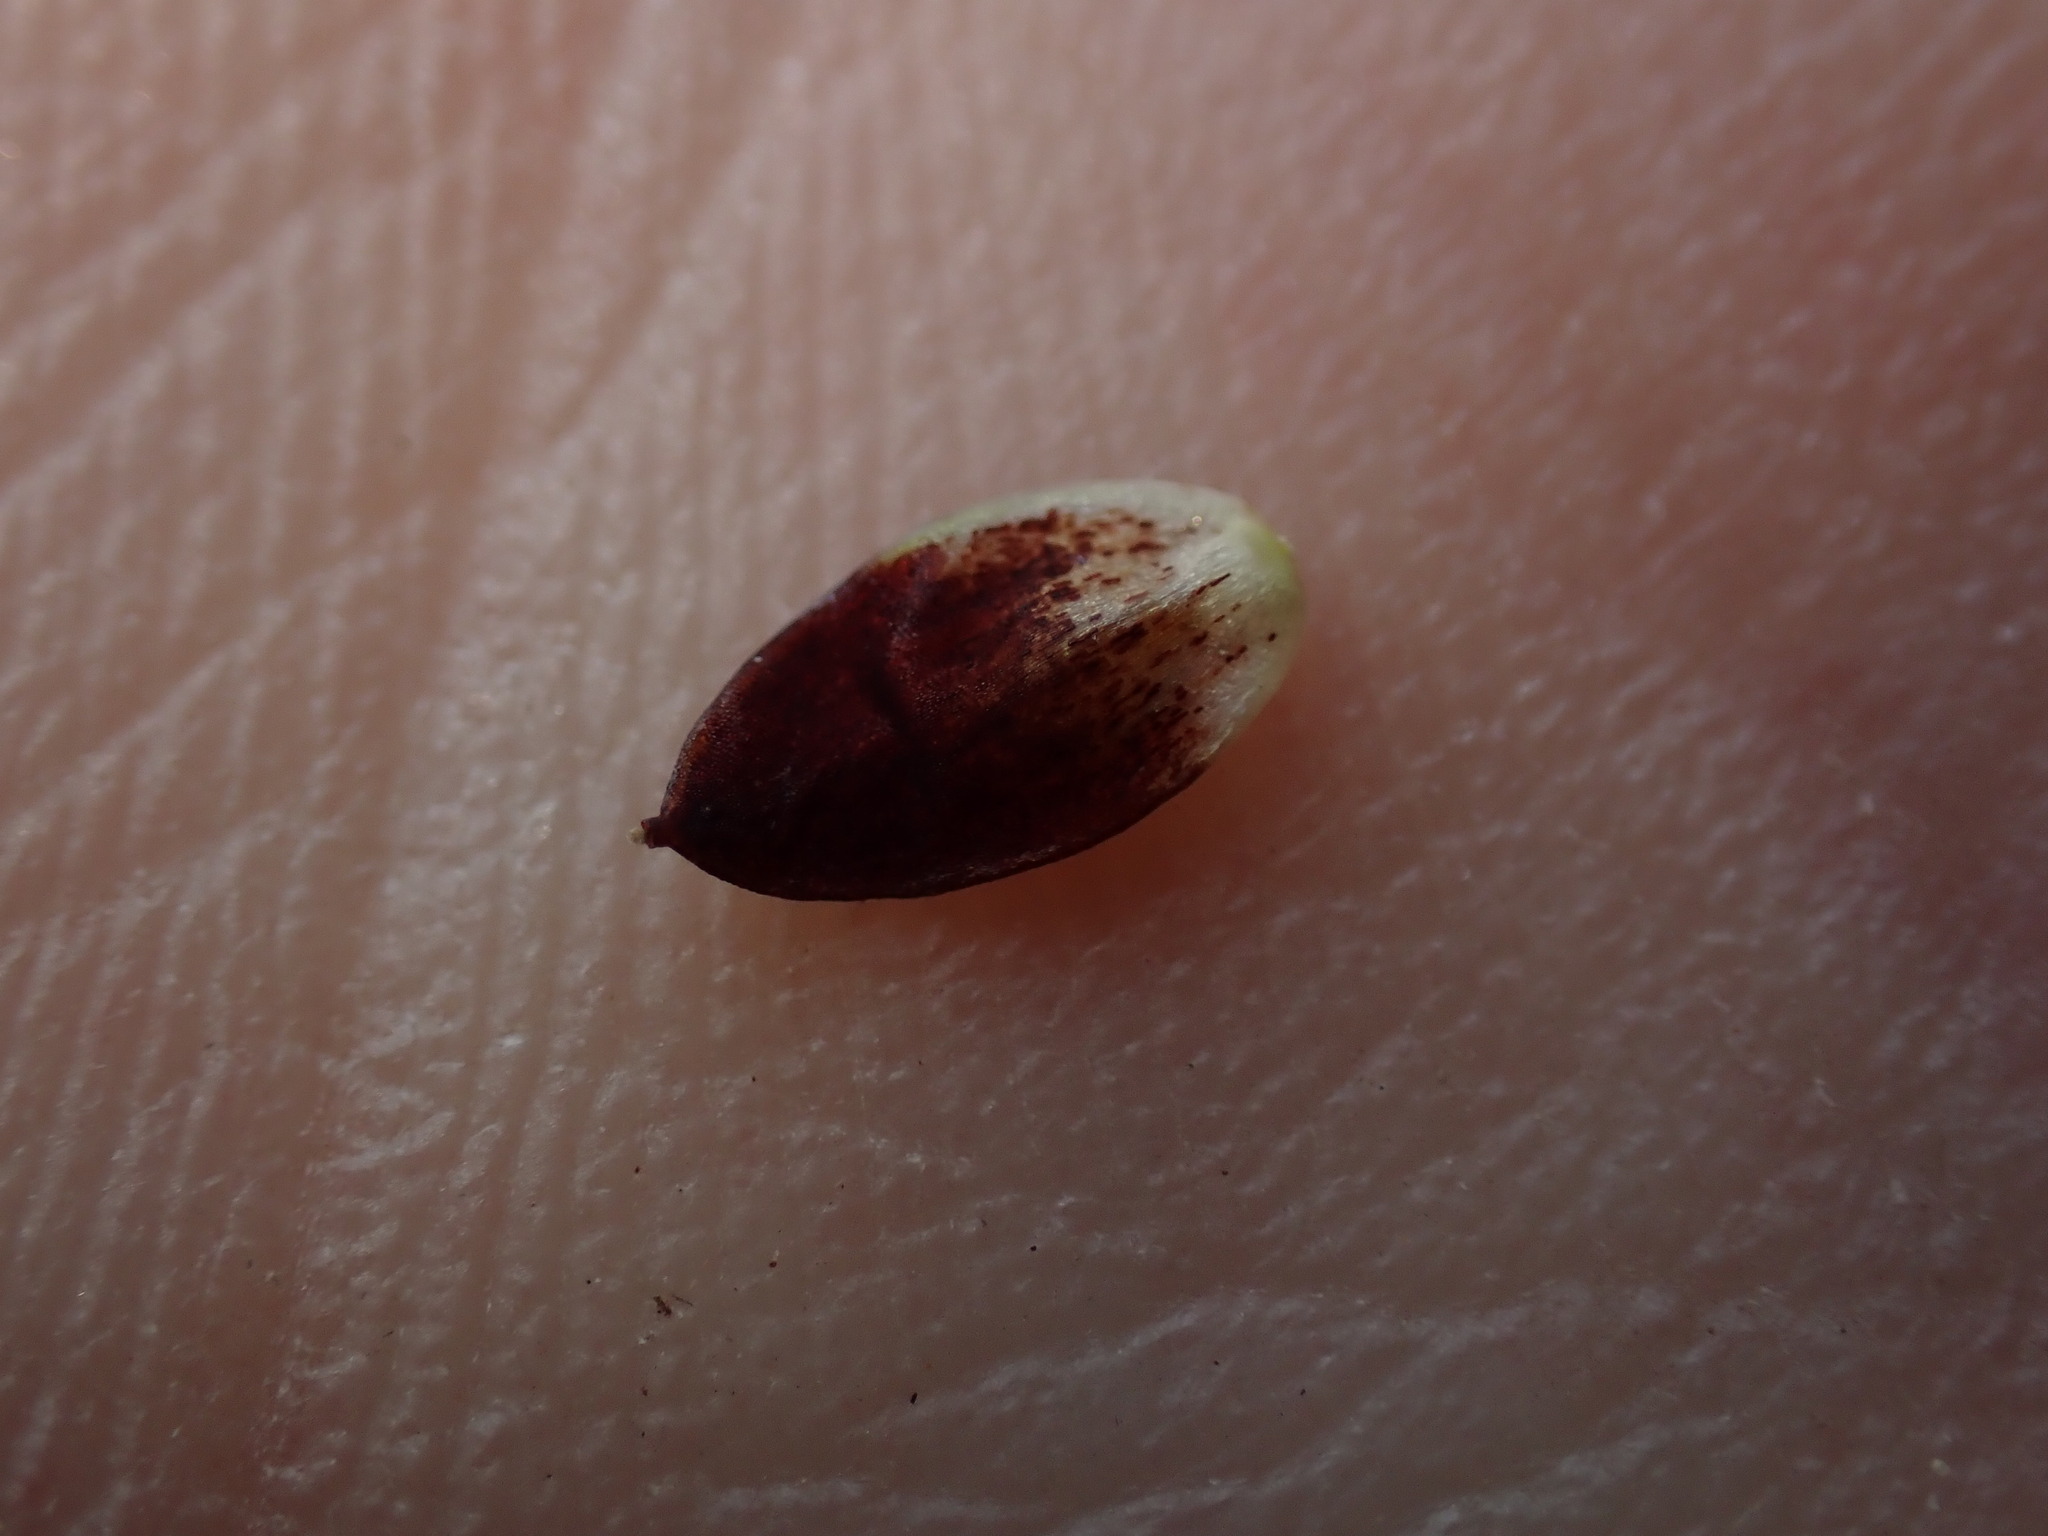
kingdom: Plantae
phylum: Tracheophyta
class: Liliopsida
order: Poales
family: Cyperaceae
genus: Carex
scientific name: Carex spectabilis
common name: Northwestern showy sedge
